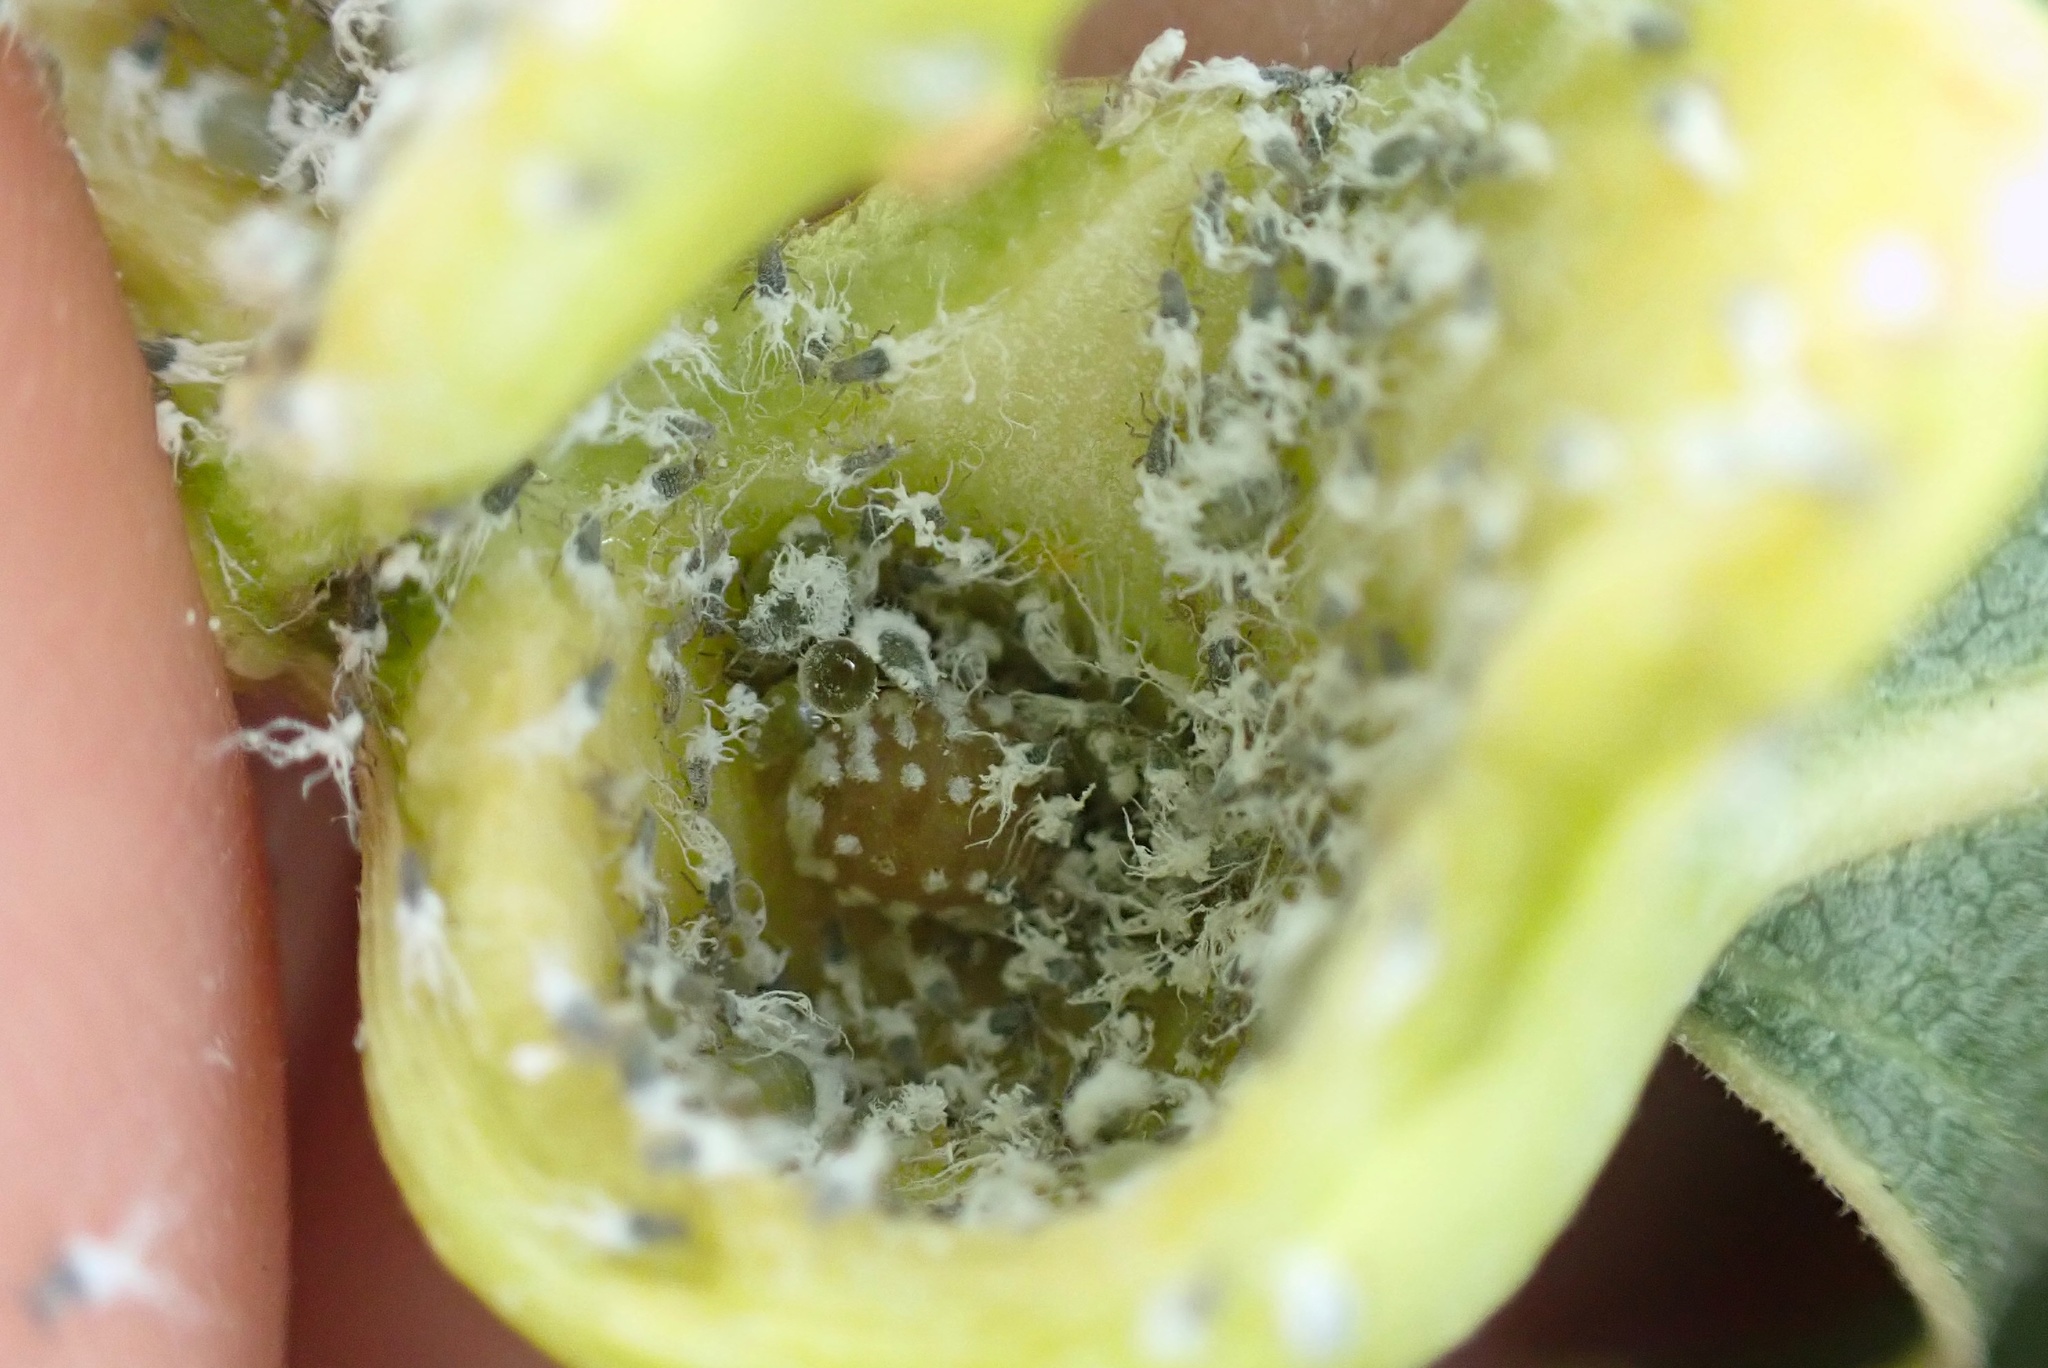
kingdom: Animalia
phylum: Arthropoda
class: Insecta
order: Hemiptera
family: Aphididae
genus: Pemphigus
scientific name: Pemphigus obesinymphae
